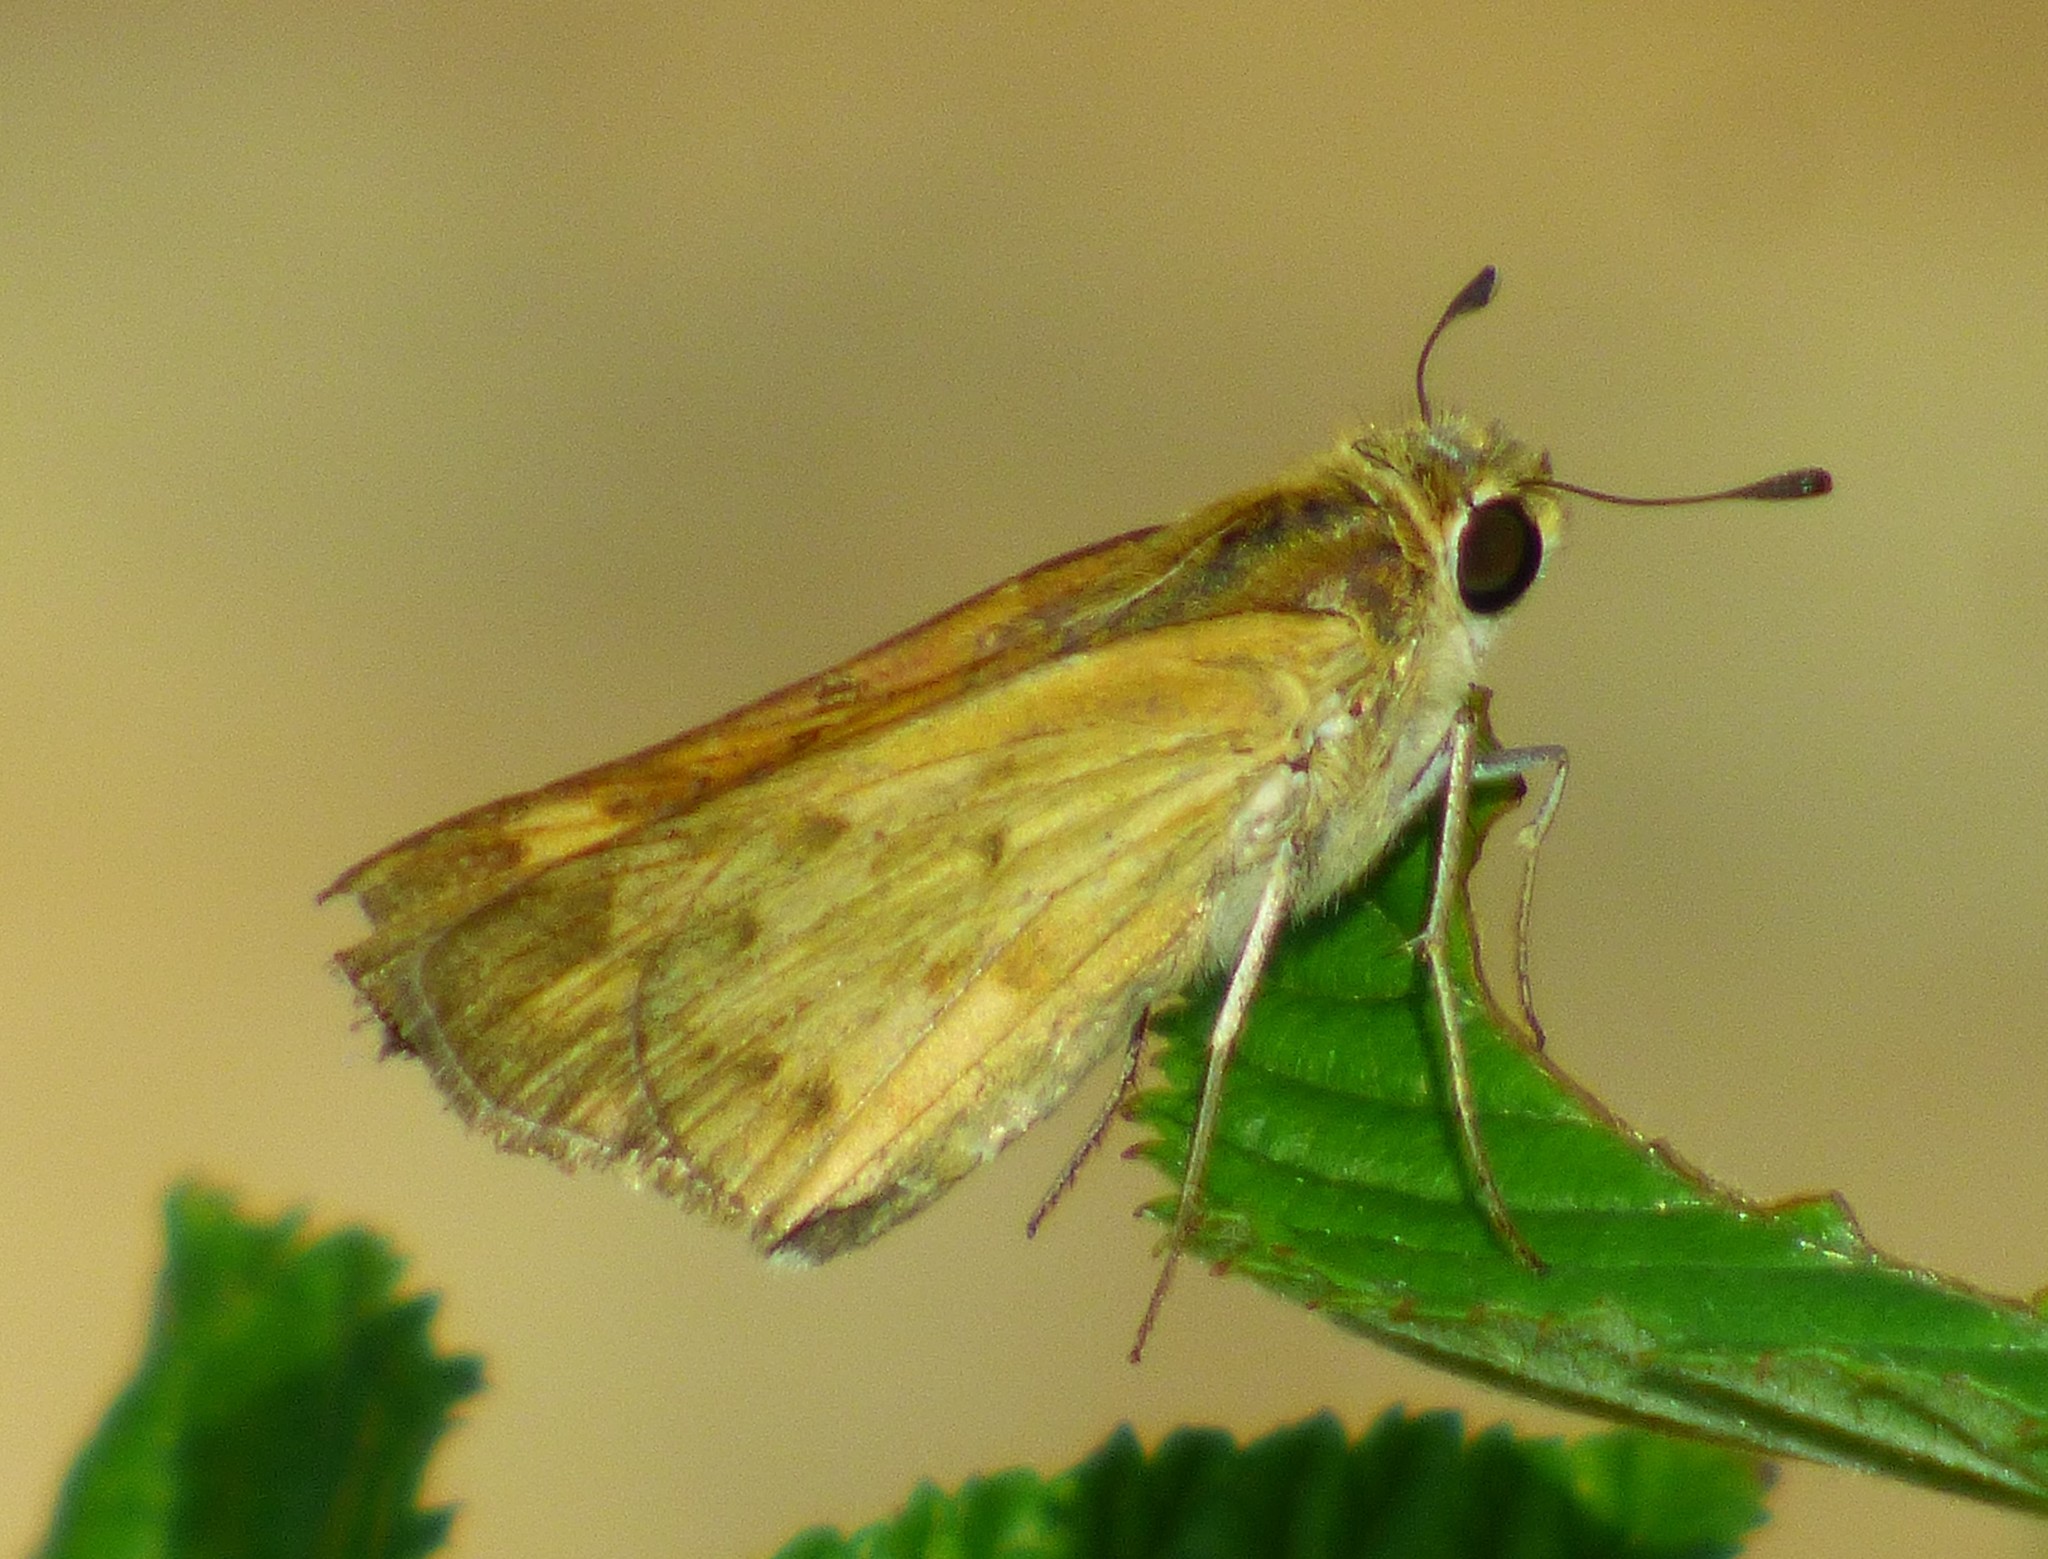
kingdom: Animalia
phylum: Arthropoda
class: Insecta
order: Lepidoptera
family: Hesperiidae
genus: Hylephila
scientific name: Hylephila phyleus
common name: Fiery skipper
